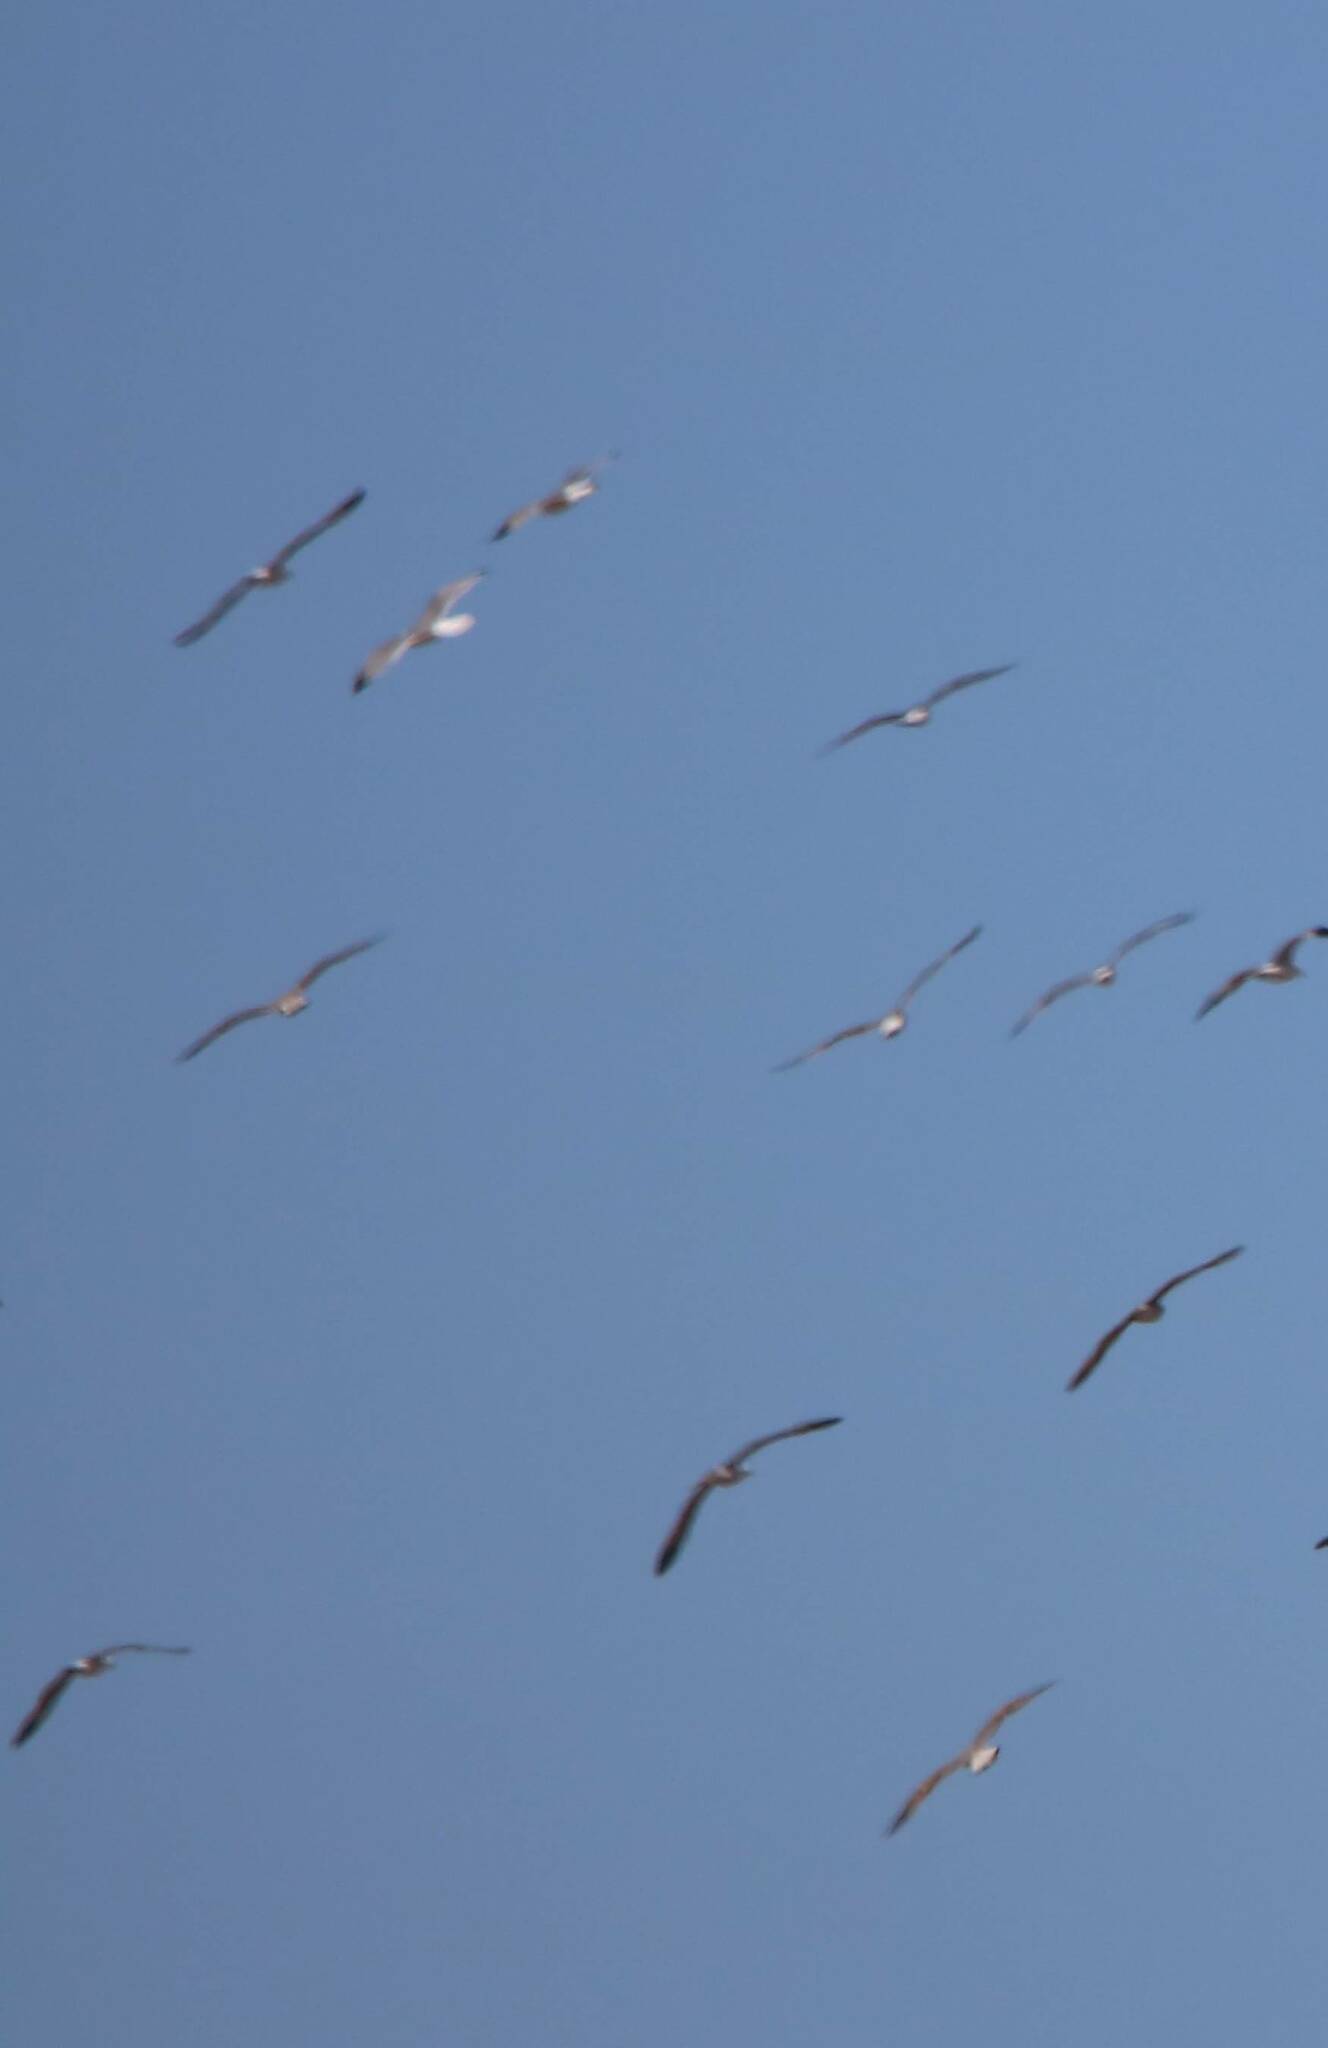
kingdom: Animalia
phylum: Chordata
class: Aves
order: Charadriiformes
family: Laridae
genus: Larus
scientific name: Larus michahellis
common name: Yellow-legged gull
